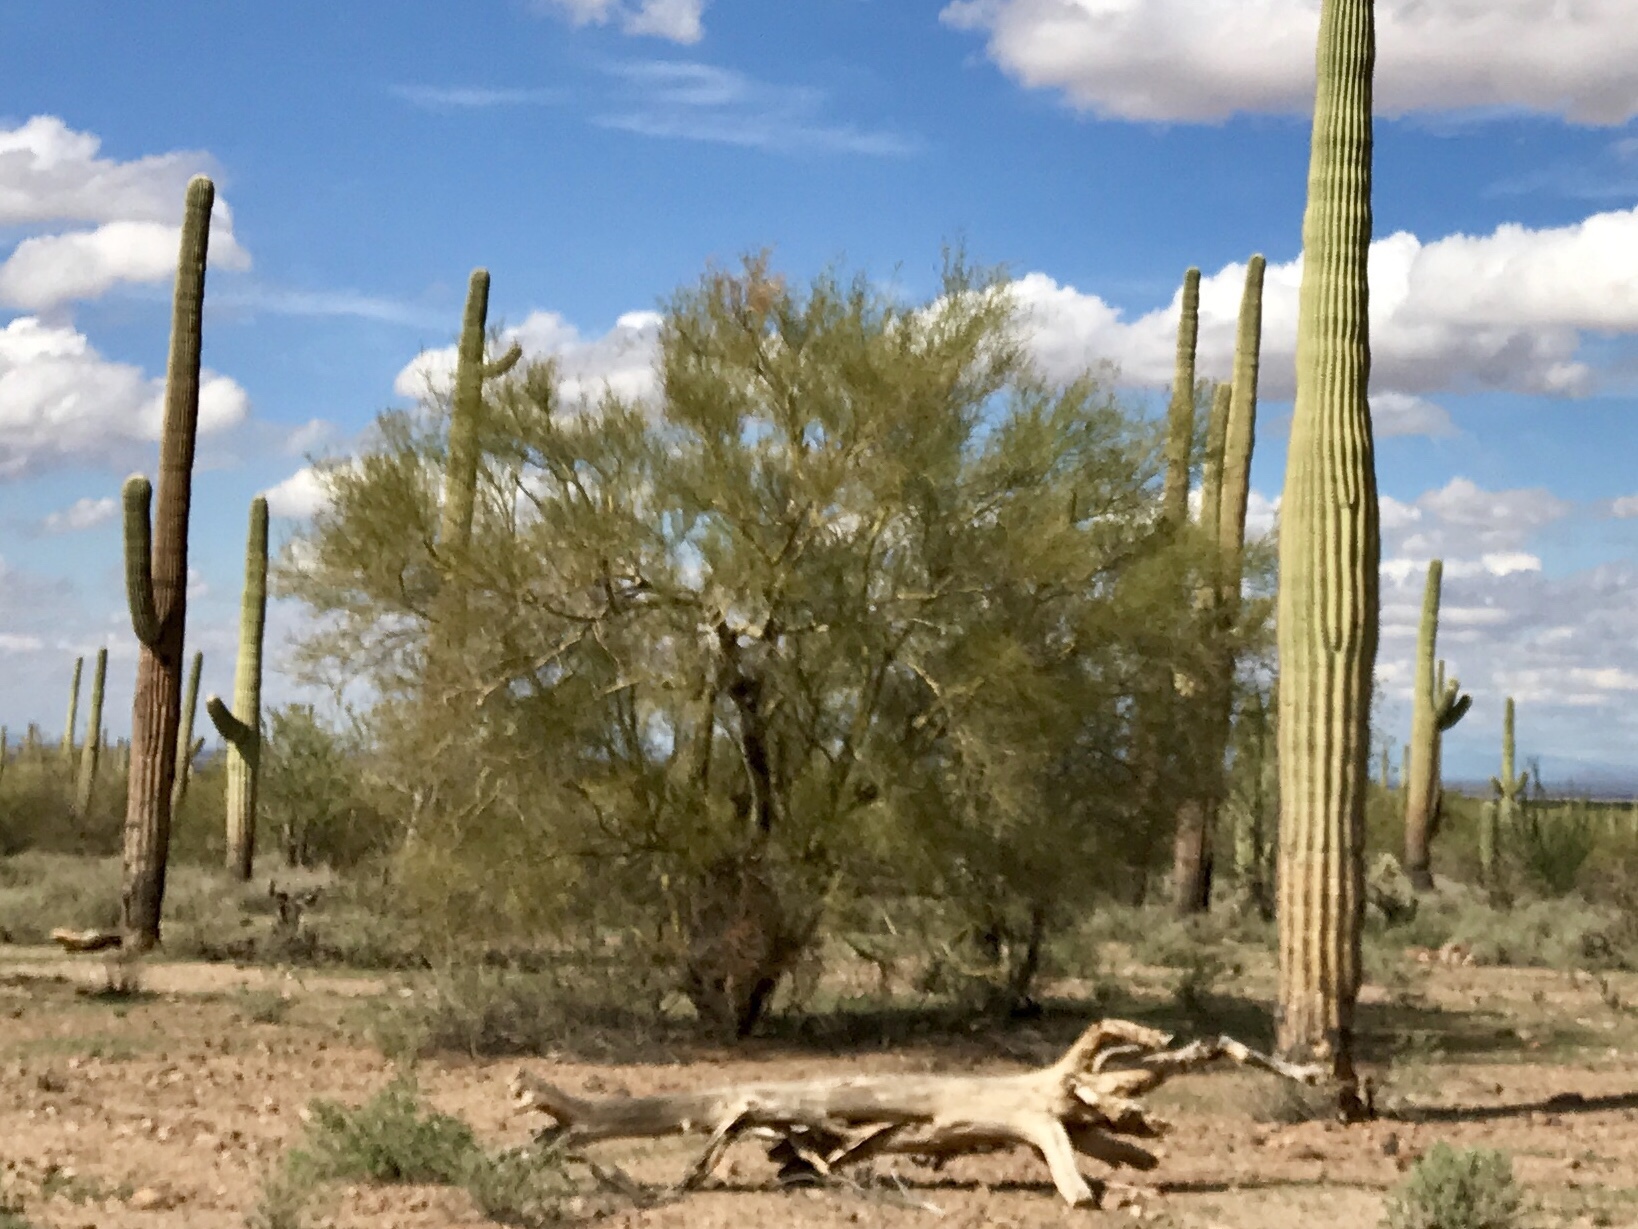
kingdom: Plantae
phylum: Tracheophyta
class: Magnoliopsida
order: Fabales
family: Fabaceae
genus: Parkinsonia
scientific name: Parkinsonia microphylla
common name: Yellow paloverde
